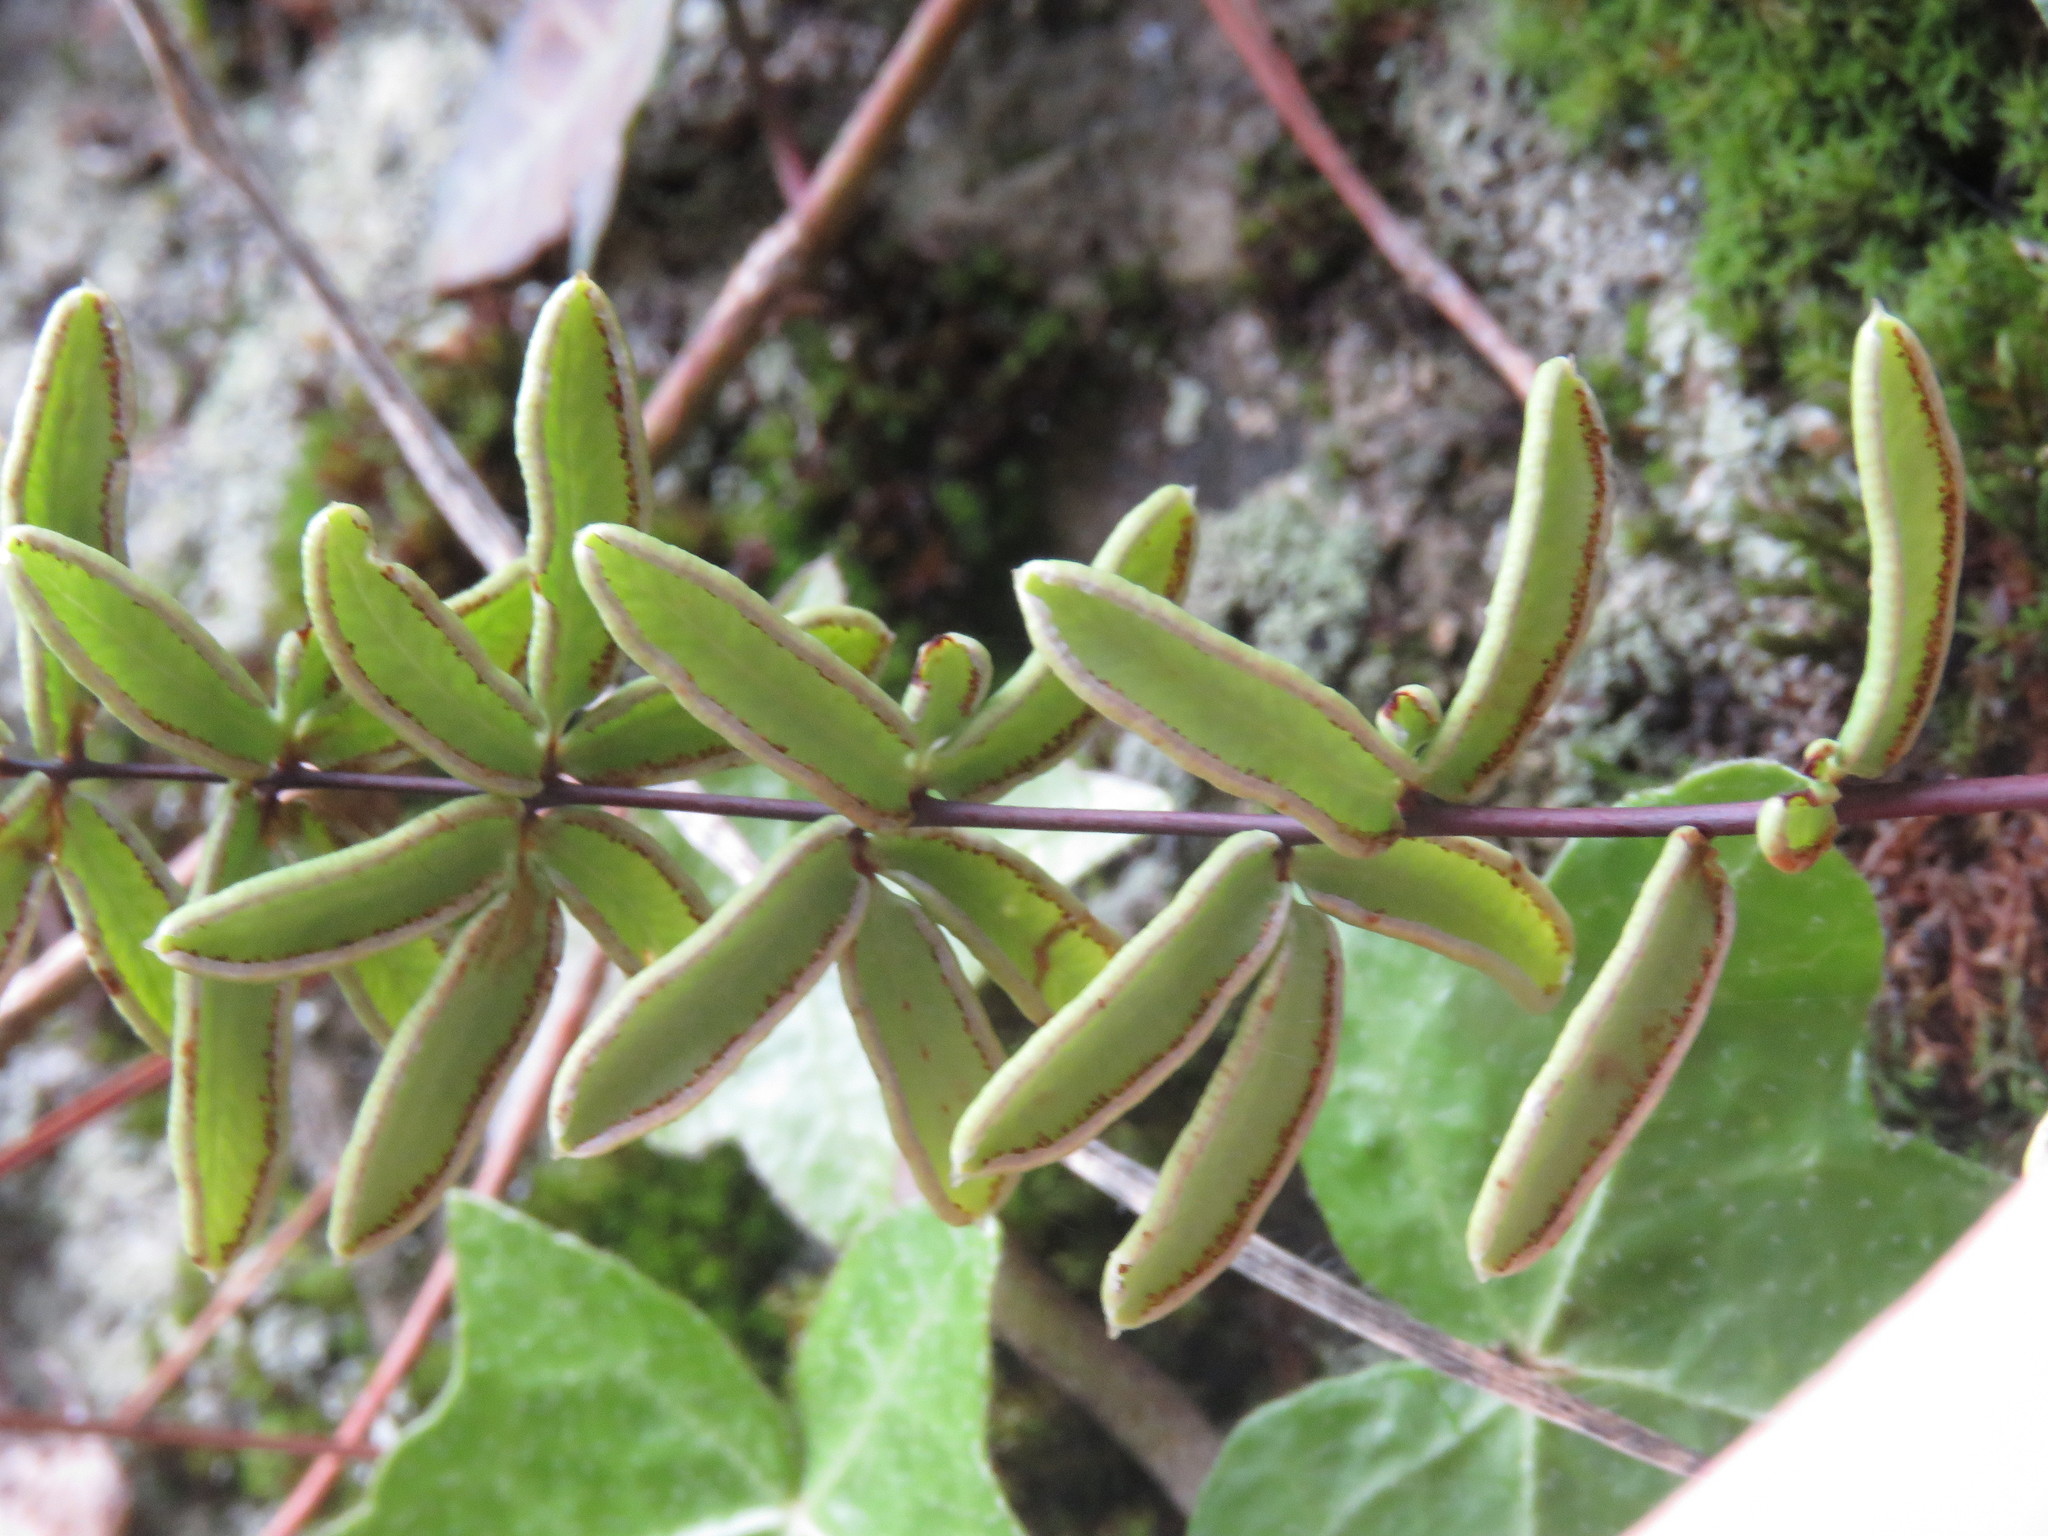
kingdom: Plantae
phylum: Tracheophyta
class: Polypodiopsida
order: Polypodiales
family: Pteridaceae
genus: Pellaea
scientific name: Pellaea ternifolia
